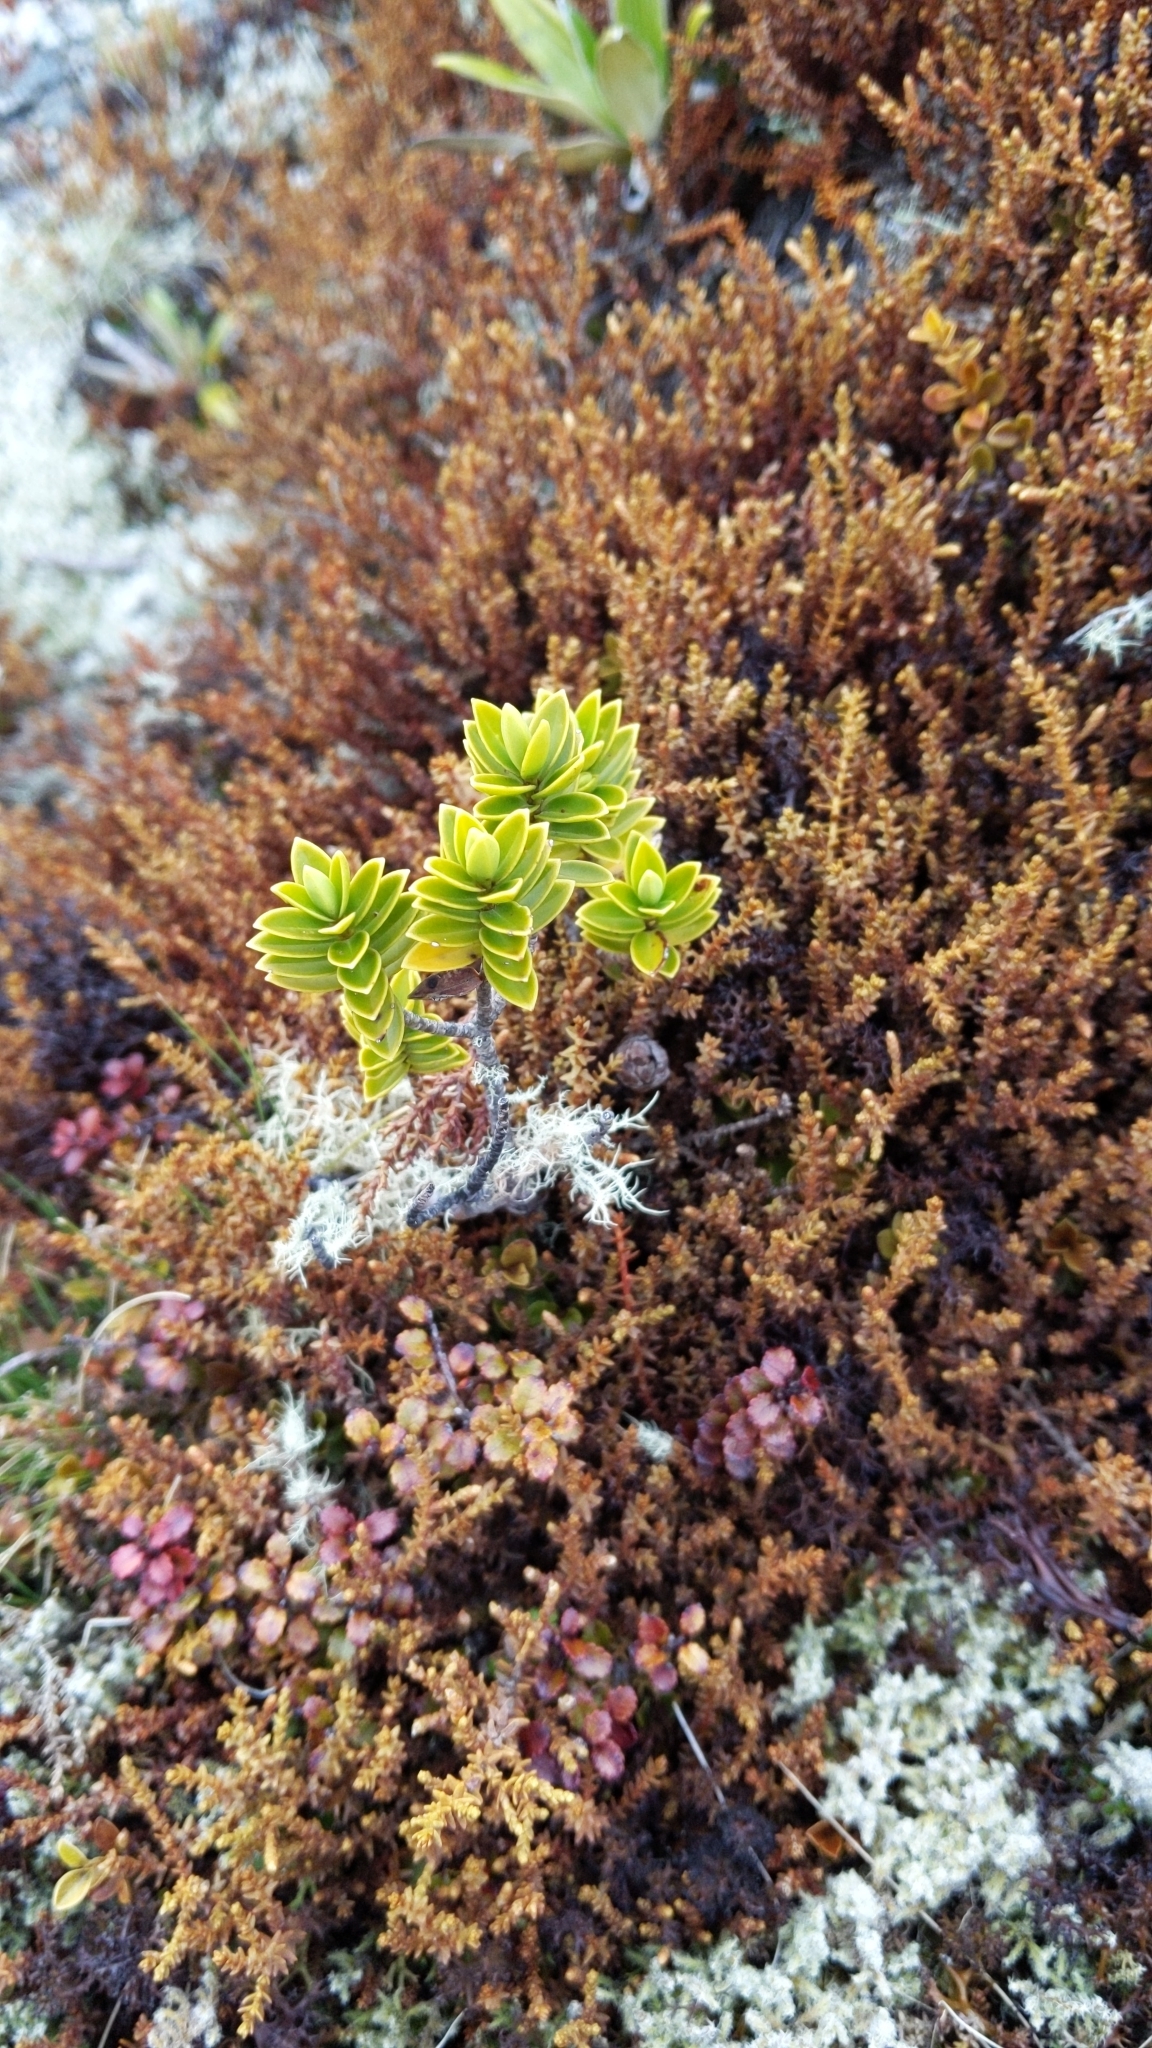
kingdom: Plantae
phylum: Tracheophyta
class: Magnoliopsida
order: Lamiales
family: Plantaginaceae
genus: Veronica
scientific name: Veronica venustula
